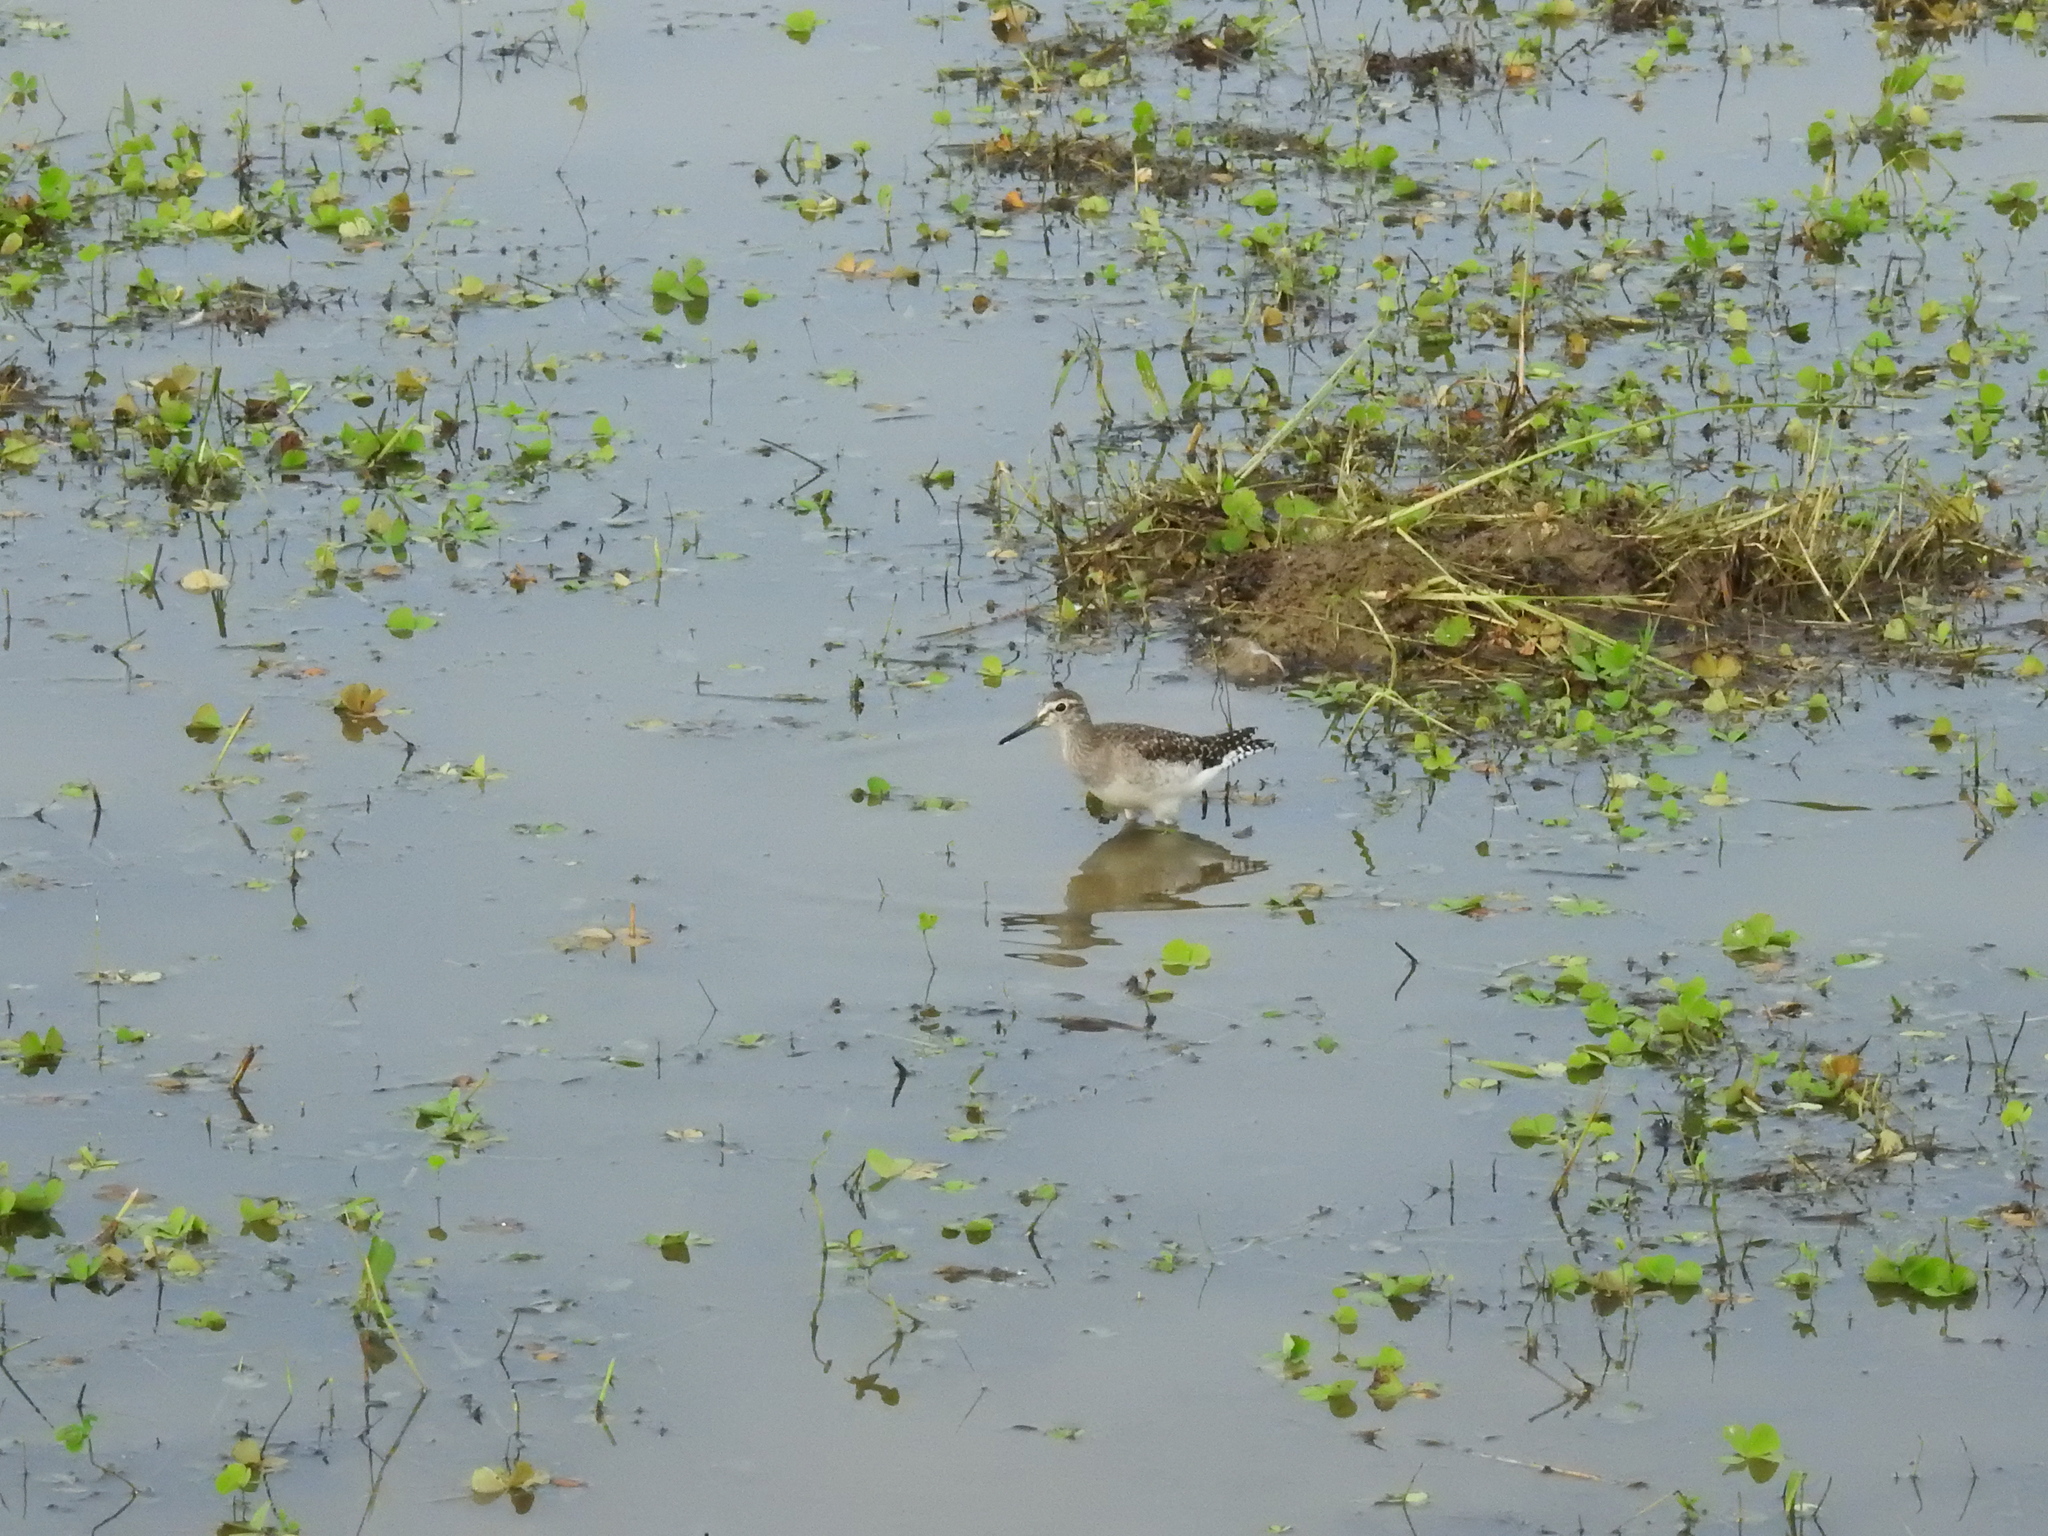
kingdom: Animalia
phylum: Chordata
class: Aves
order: Charadriiformes
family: Scolopacidae
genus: Tringa
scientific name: Tringa glareola
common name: Wood sandpiper
